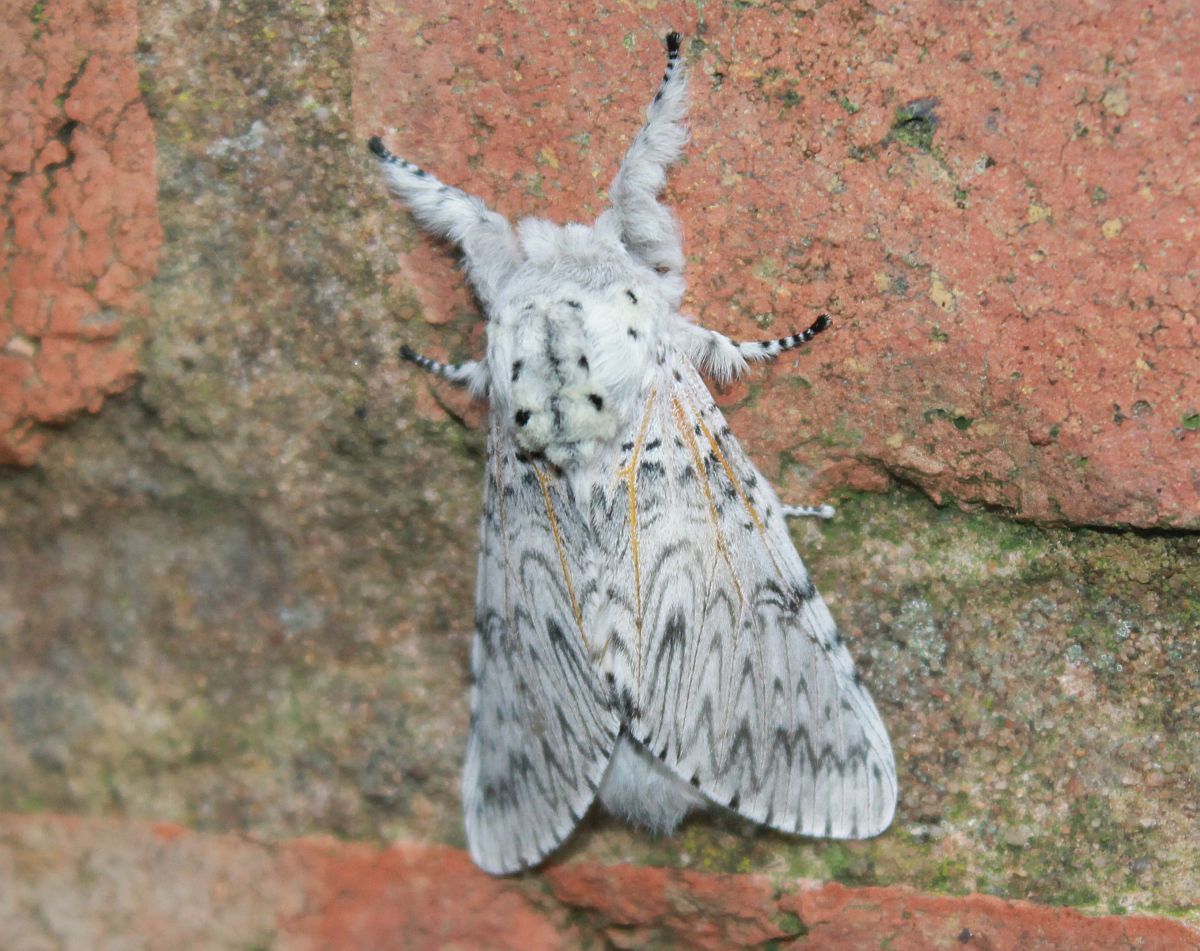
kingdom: Animalia
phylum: Arthropoda
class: Insecta
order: Lepidoptera
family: Notodontidae
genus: Cerura
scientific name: Cerura vinula
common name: Puss moth
